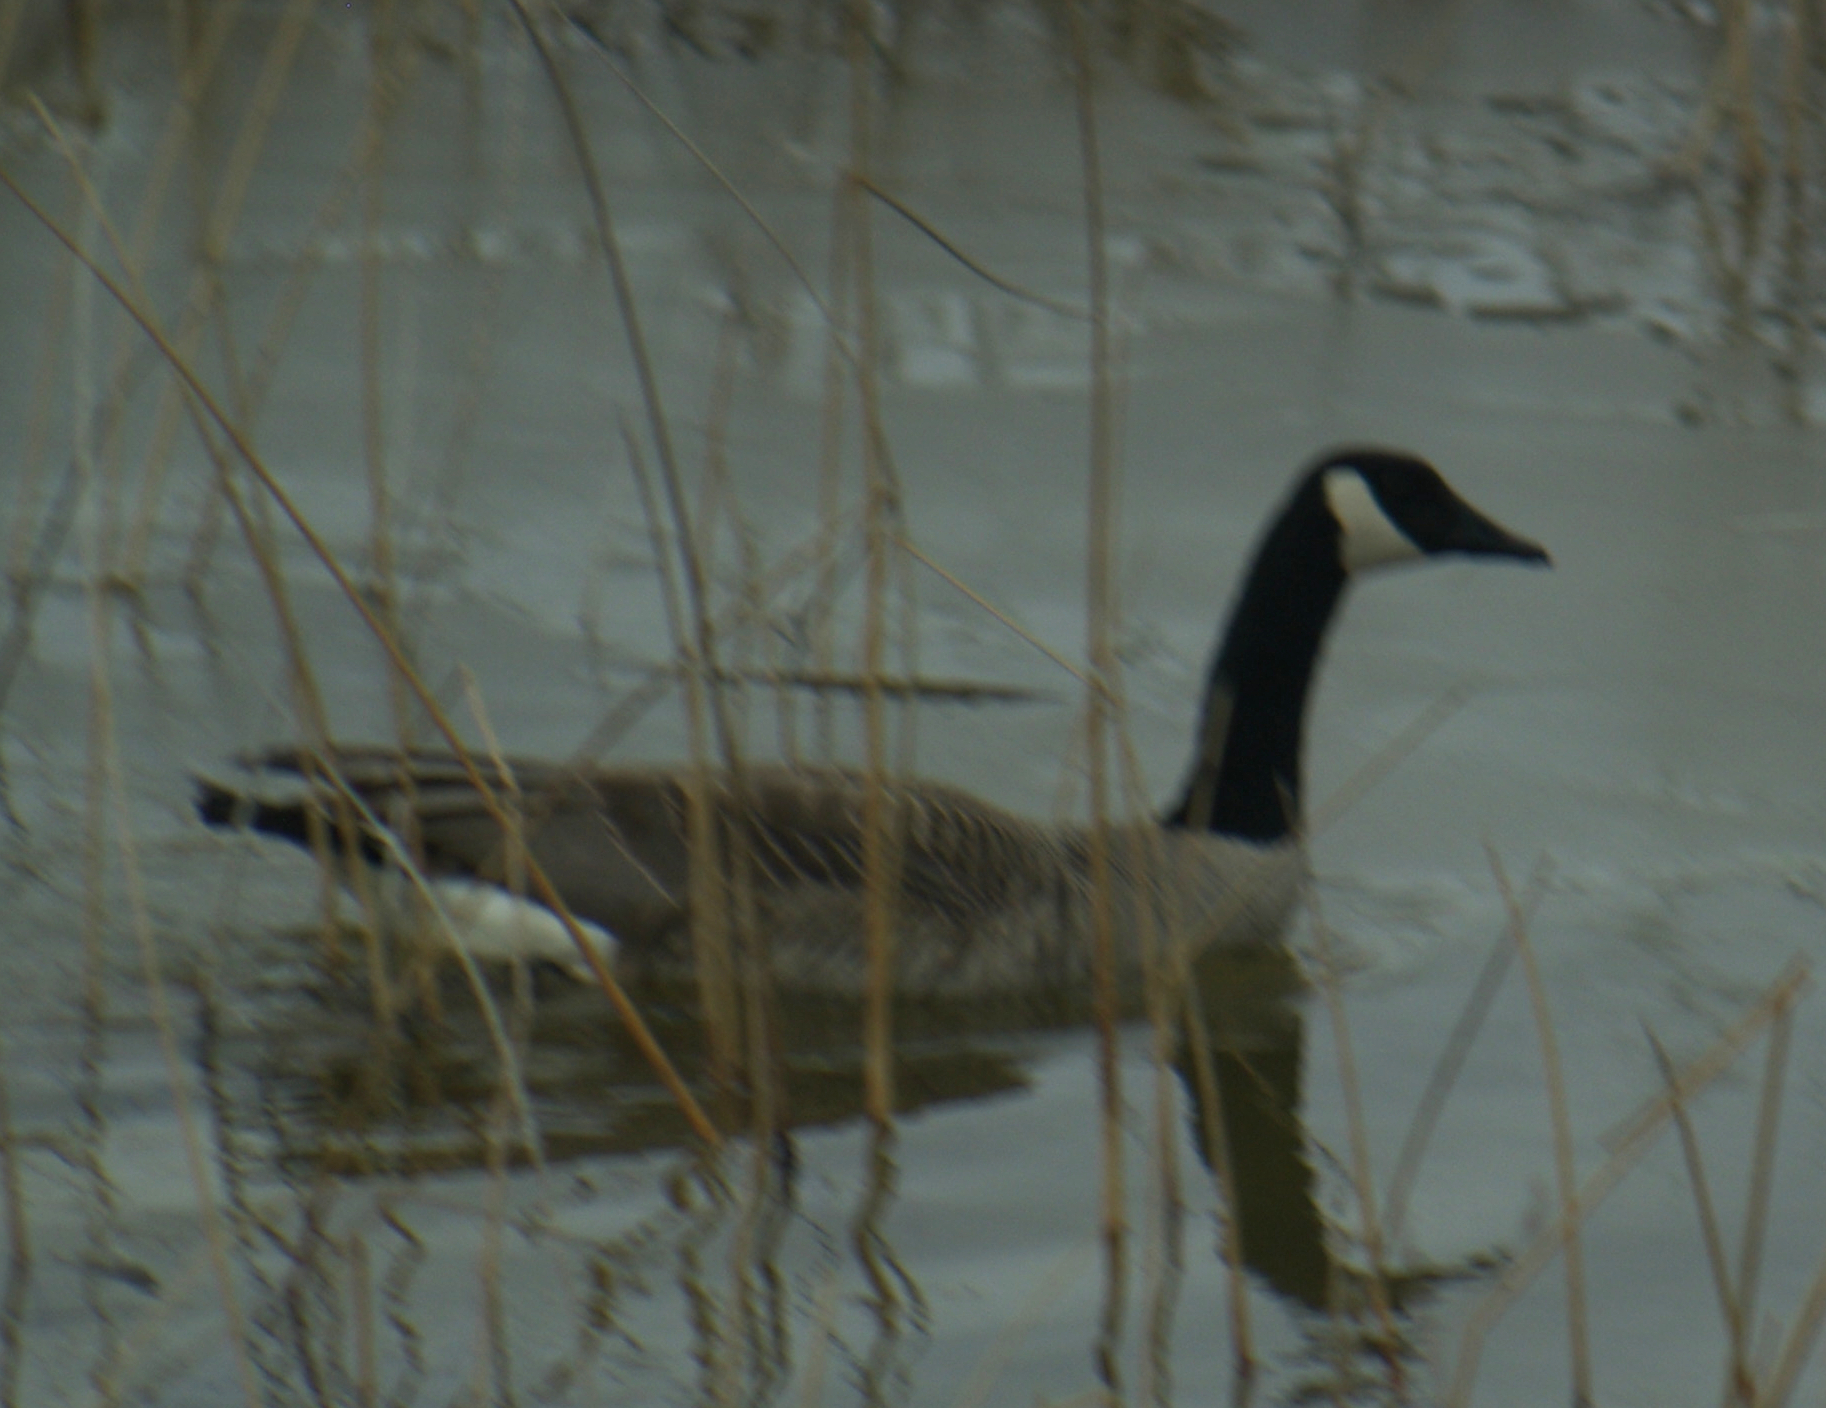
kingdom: Animalia
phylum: Chordata
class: Aves
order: Anseriformes
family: Anatidae
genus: Branta
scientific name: Branta canadensis
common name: Canada goose
